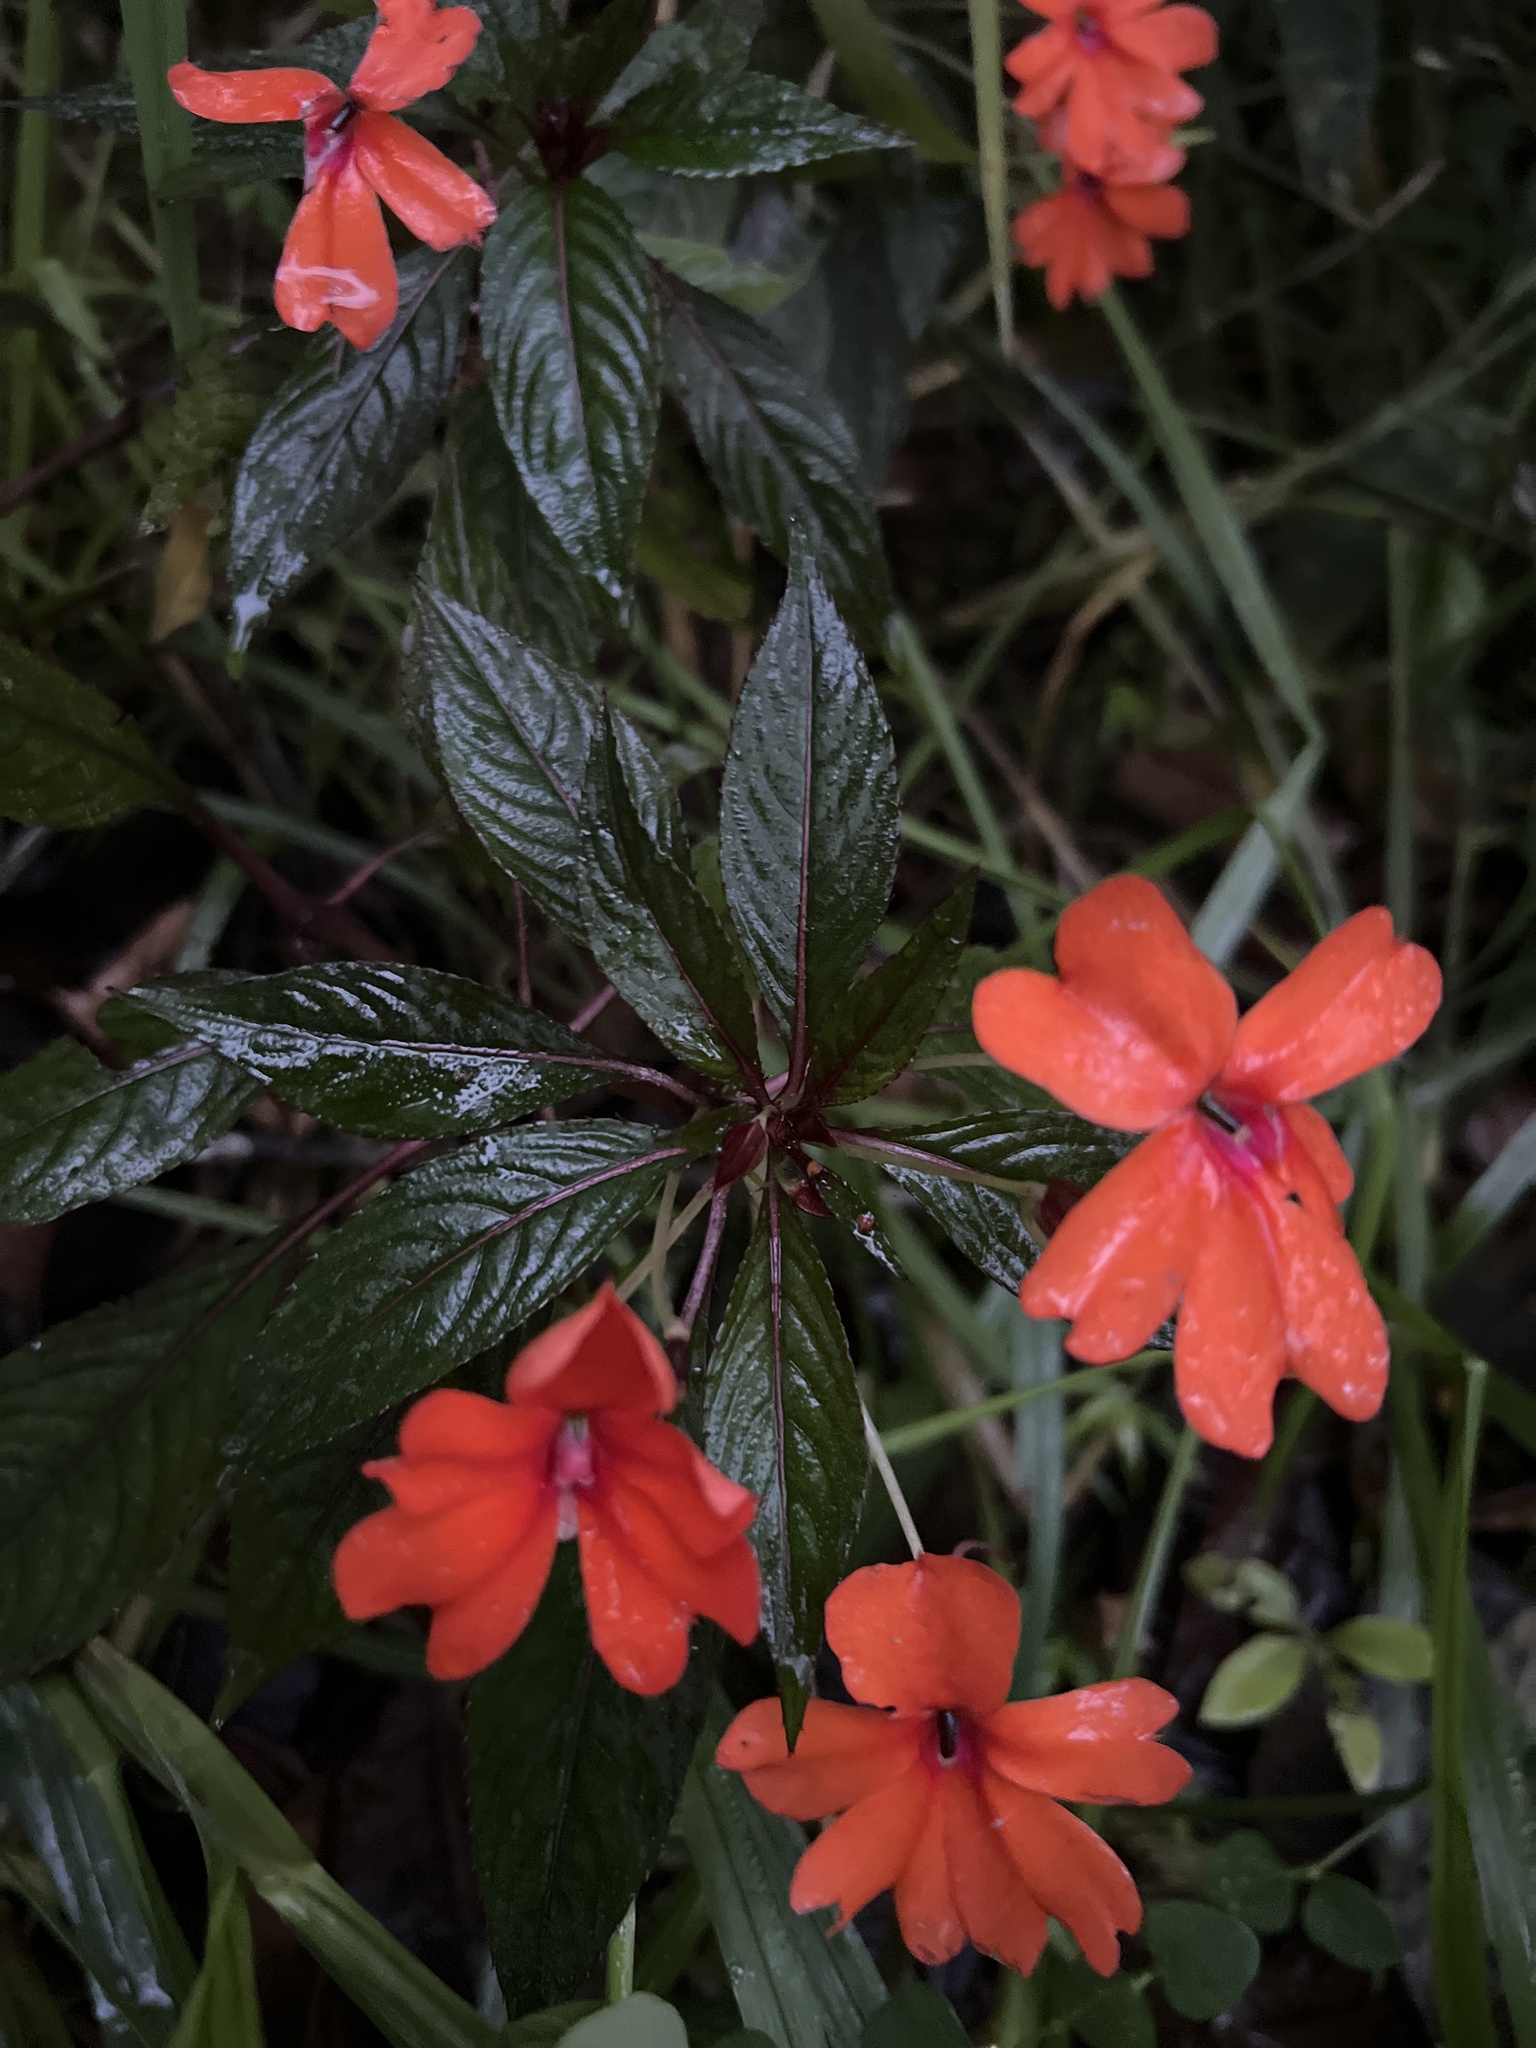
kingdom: Plantae
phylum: Tracheophyta
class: Magnoliopsida
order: Ericales
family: Balsaminaceae
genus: Impatiens
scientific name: Impatiens hawkeri
